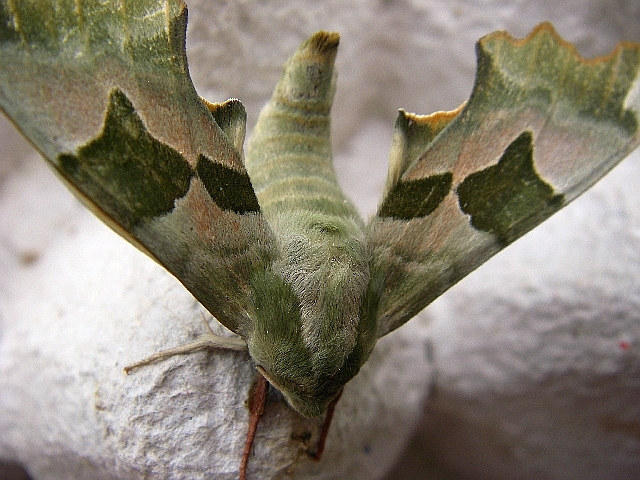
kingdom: Animalia
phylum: Arthropoda
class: Insecta
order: Lepidoptera
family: Sphingidae
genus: Mimas
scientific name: Mimas tiliae
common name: Lime hawk-moth
